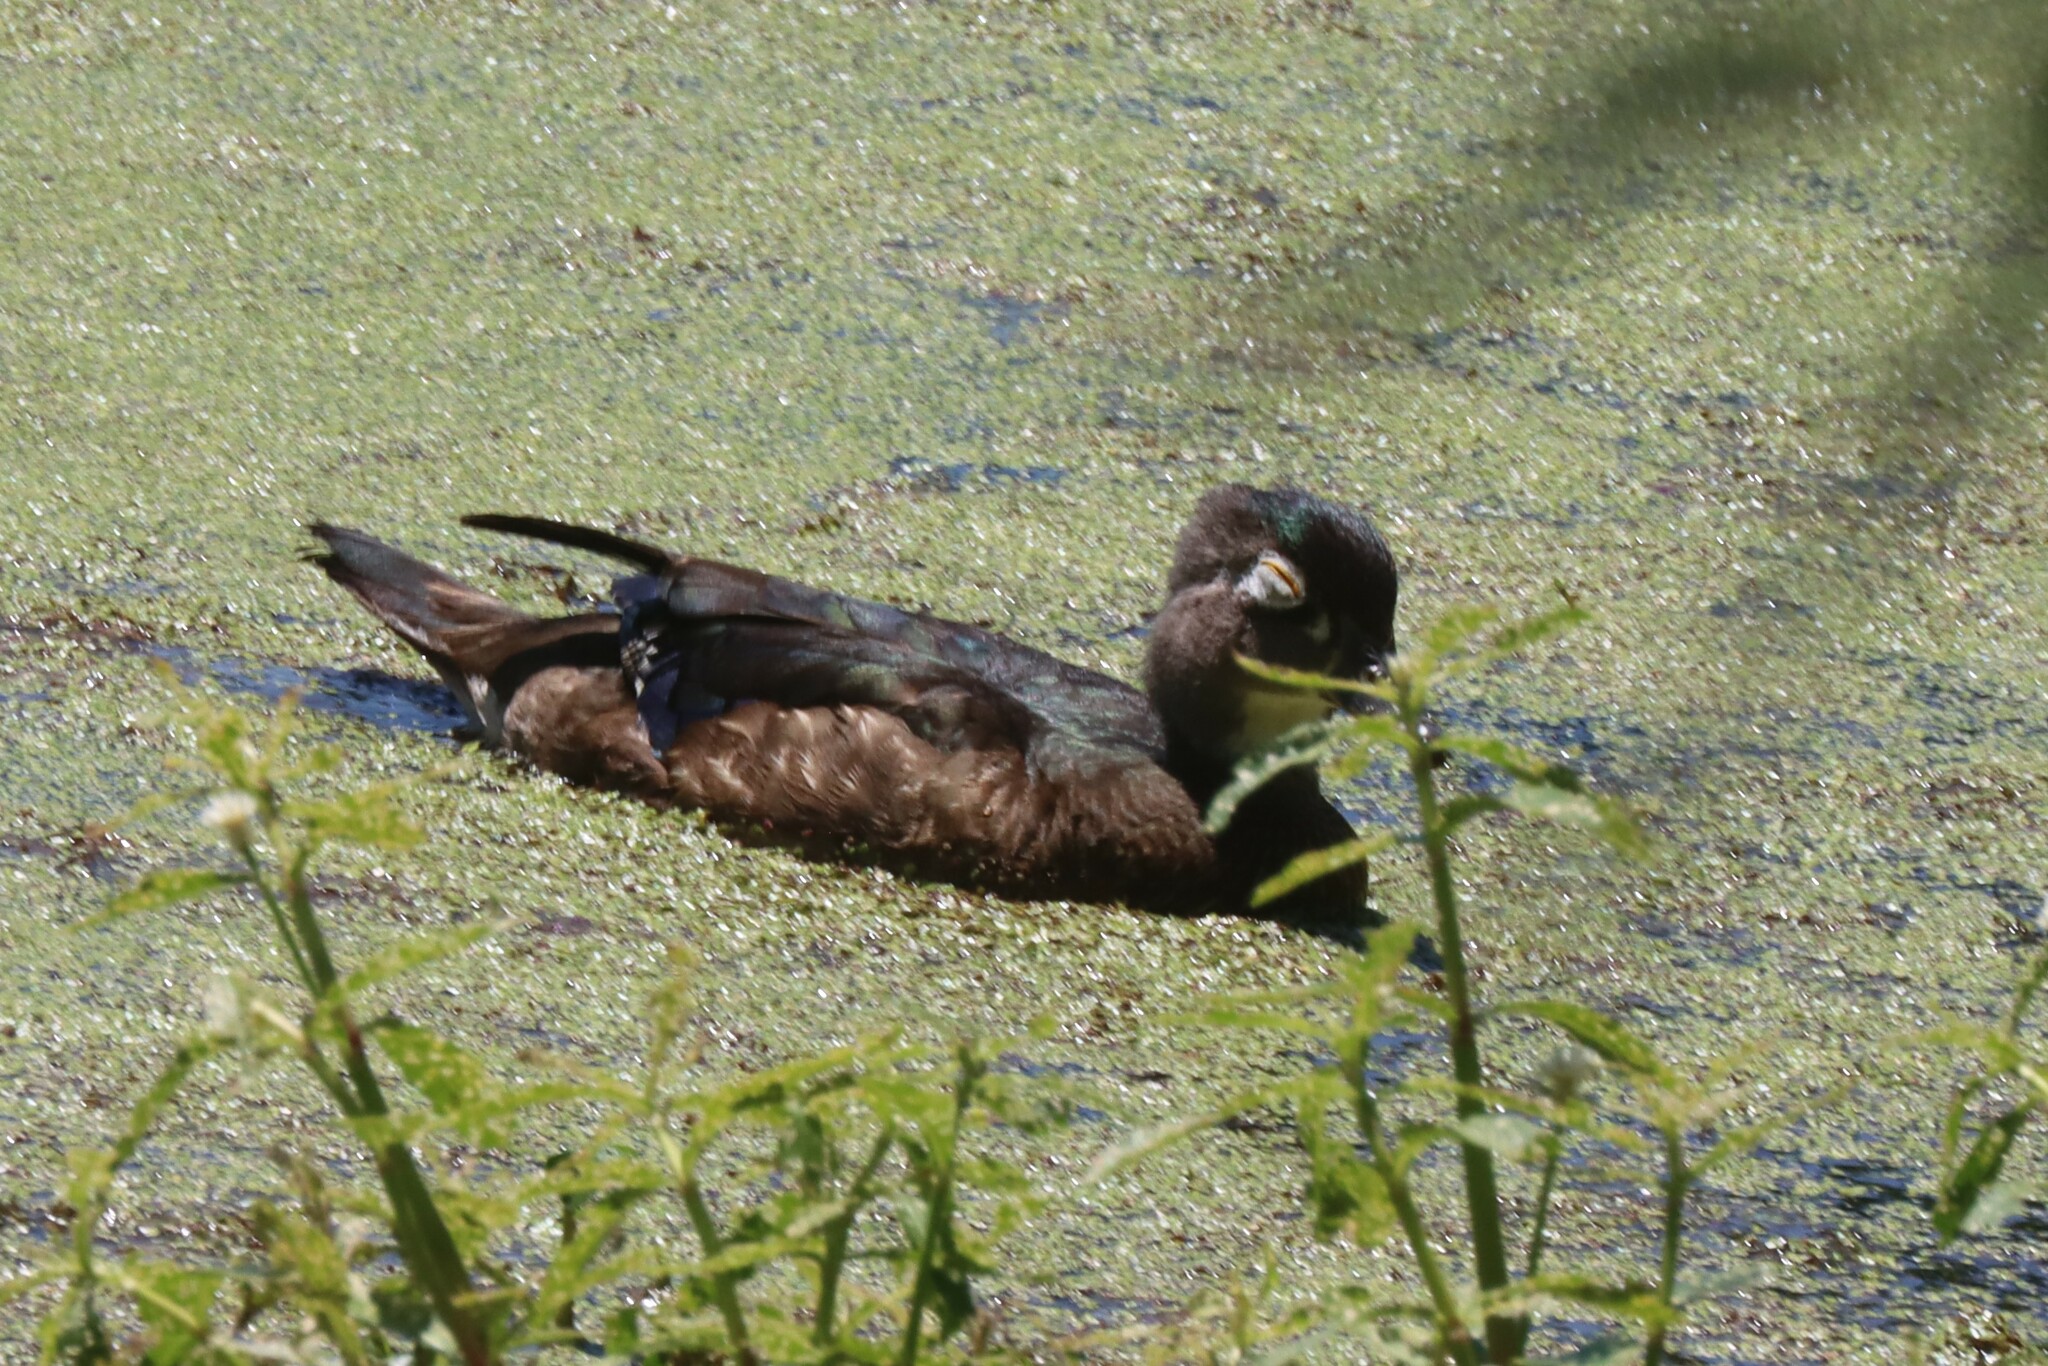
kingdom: Animalia
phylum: Chordata
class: Aves
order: Anseriformes
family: Anatidae
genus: Aix
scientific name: Aix sponsa
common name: Wood duck
